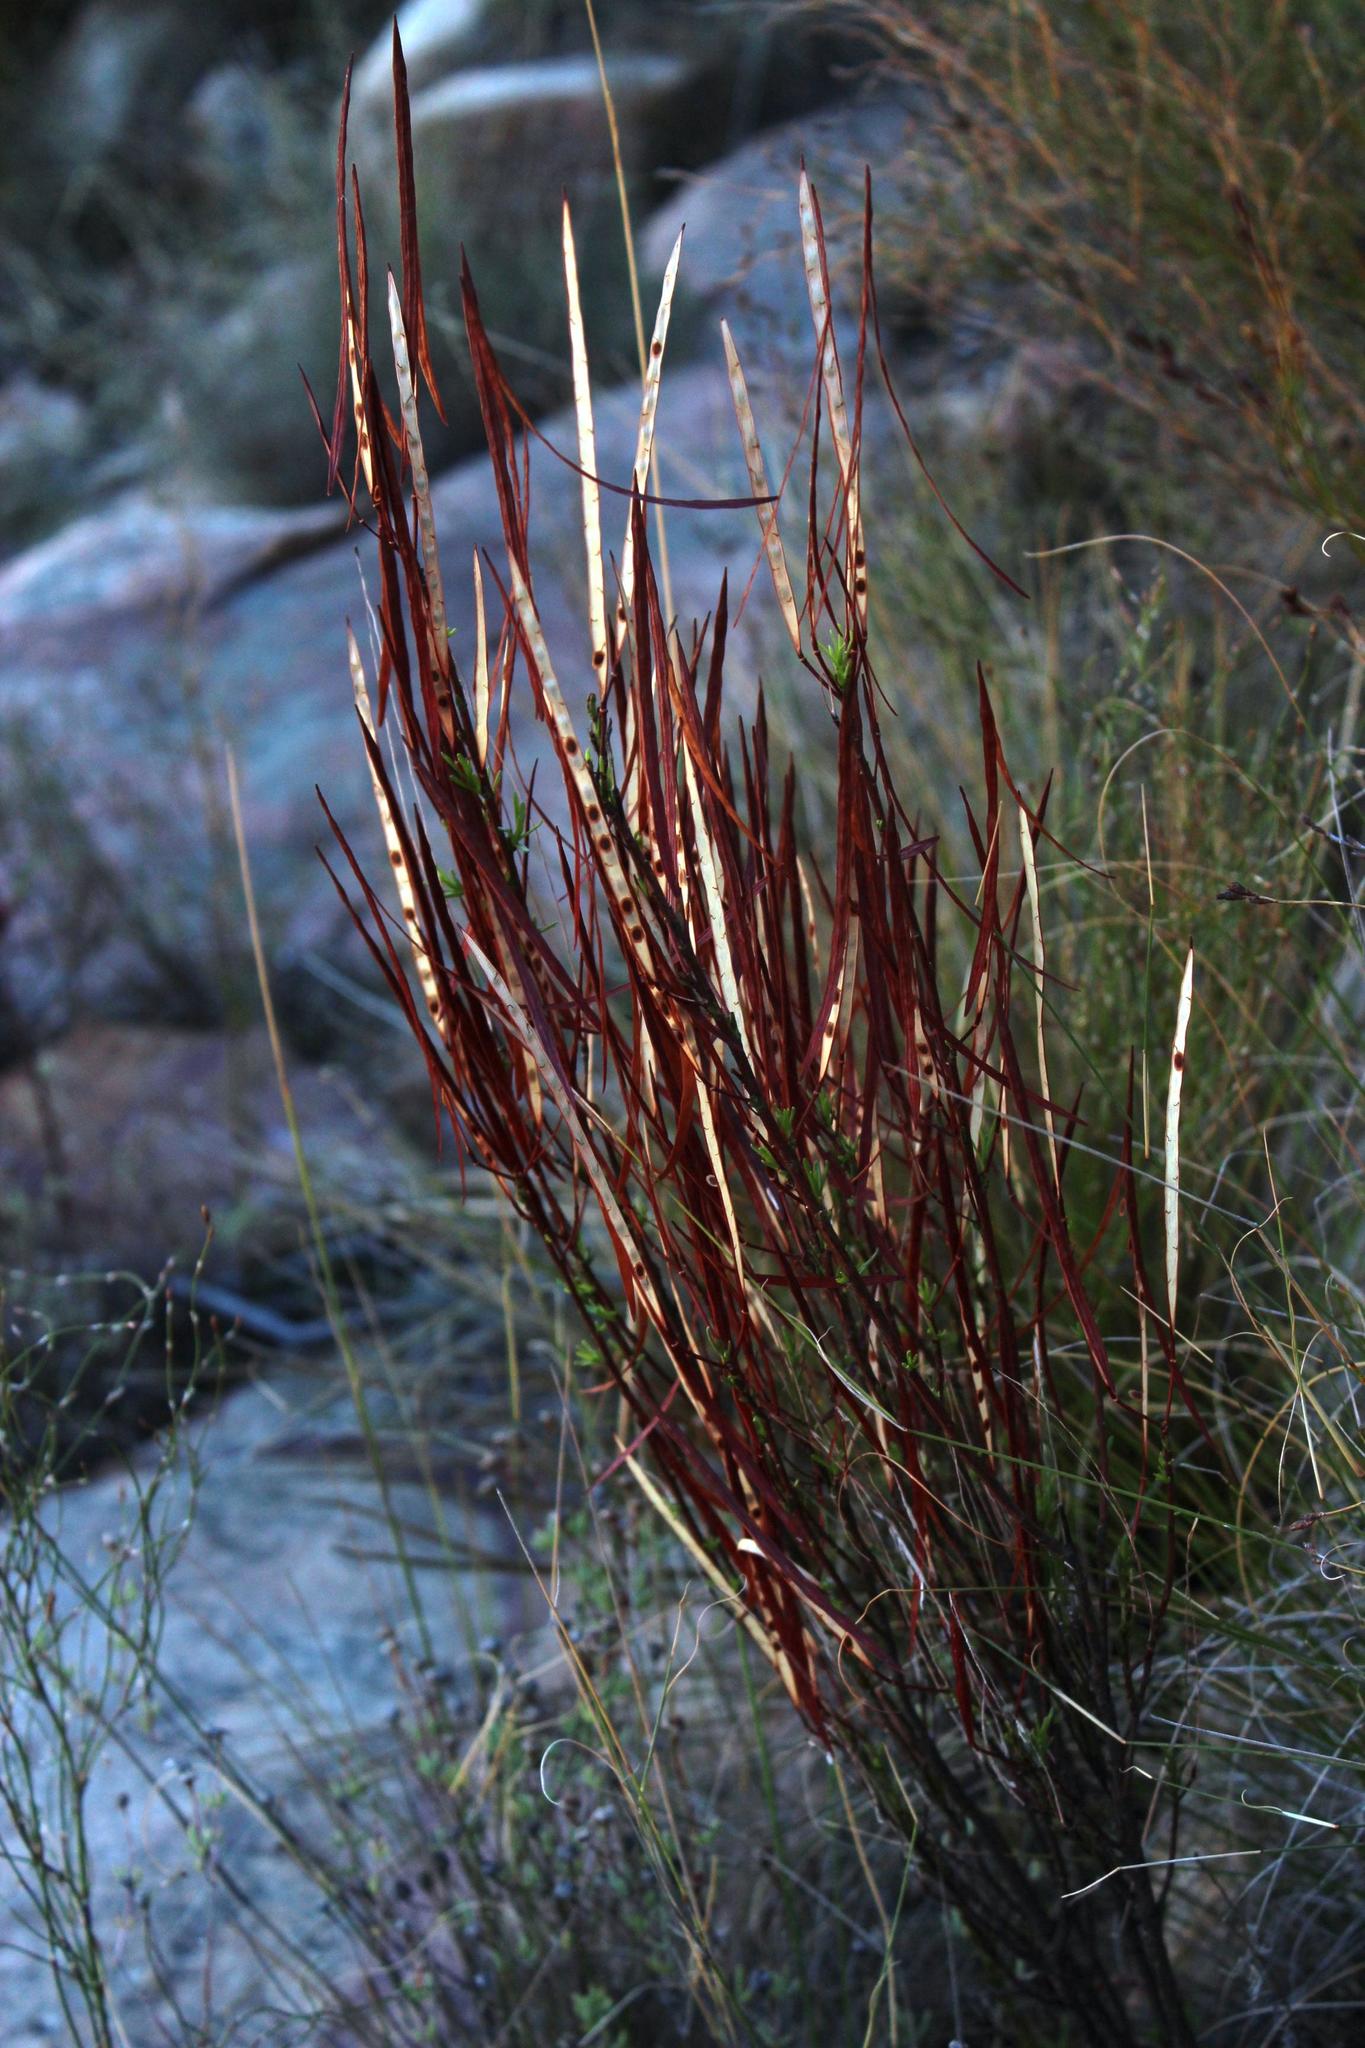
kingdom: Plantae
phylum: Tracheophyta
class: Magnoliopsida
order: Brassicales
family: Brassicaceae
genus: Heliophila
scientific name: Heliophila scoparia
